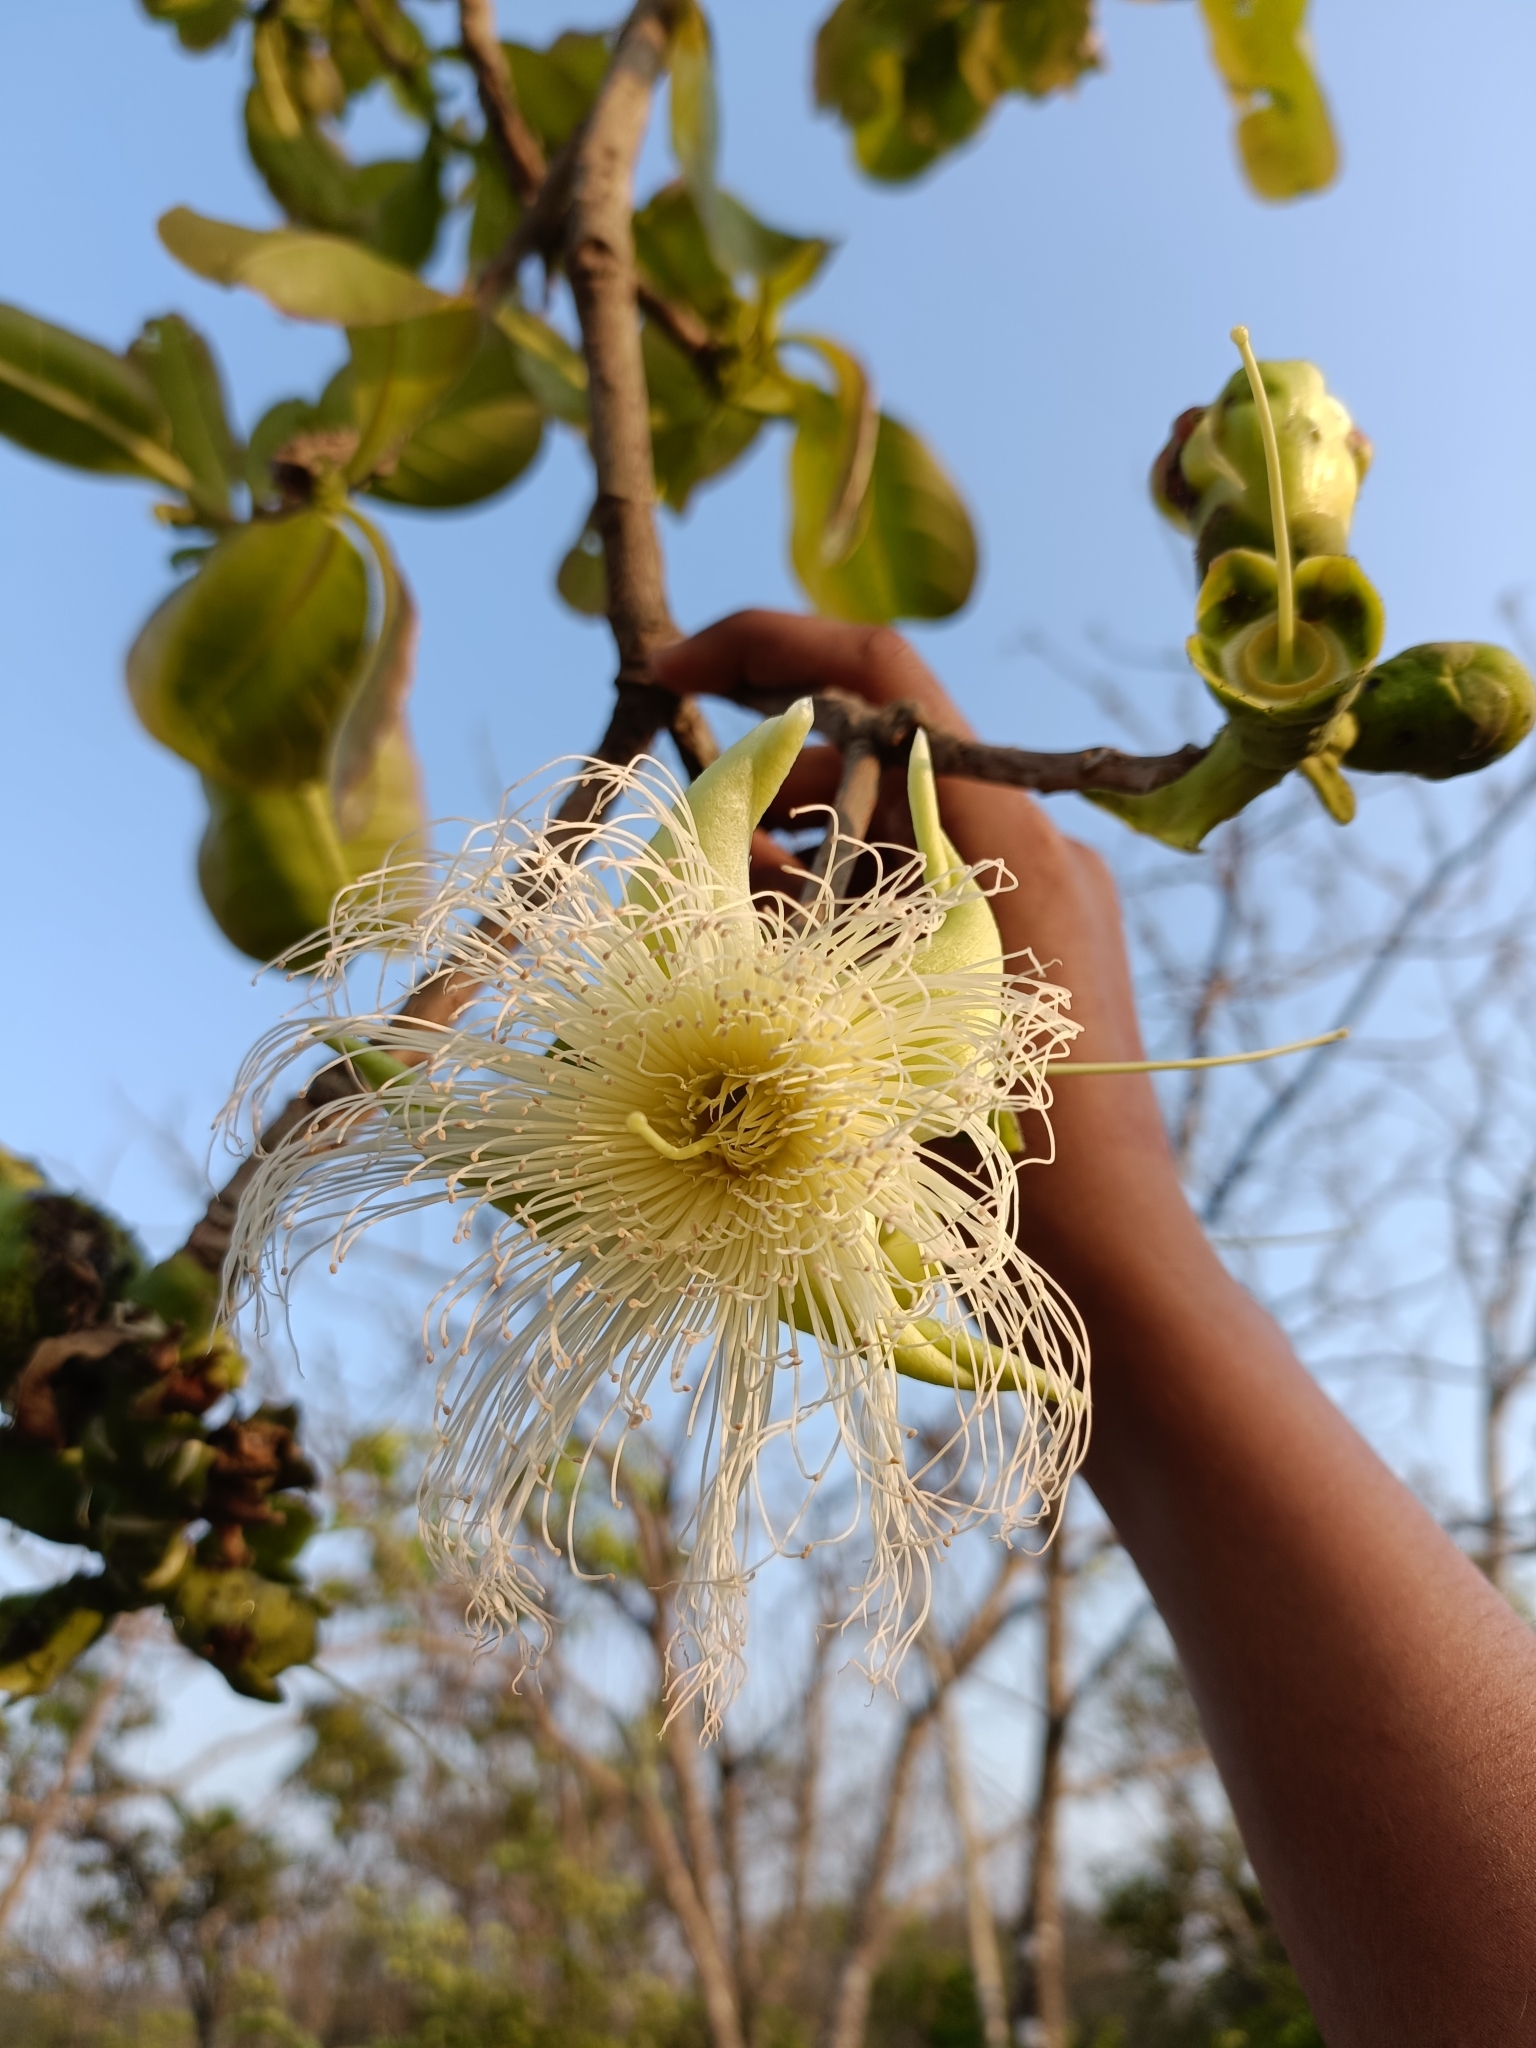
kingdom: Plantae
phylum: Tracheophyta
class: Magnoliopsida
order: Ericales
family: Lecythidaceae
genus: Careya
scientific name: Careya arborea
